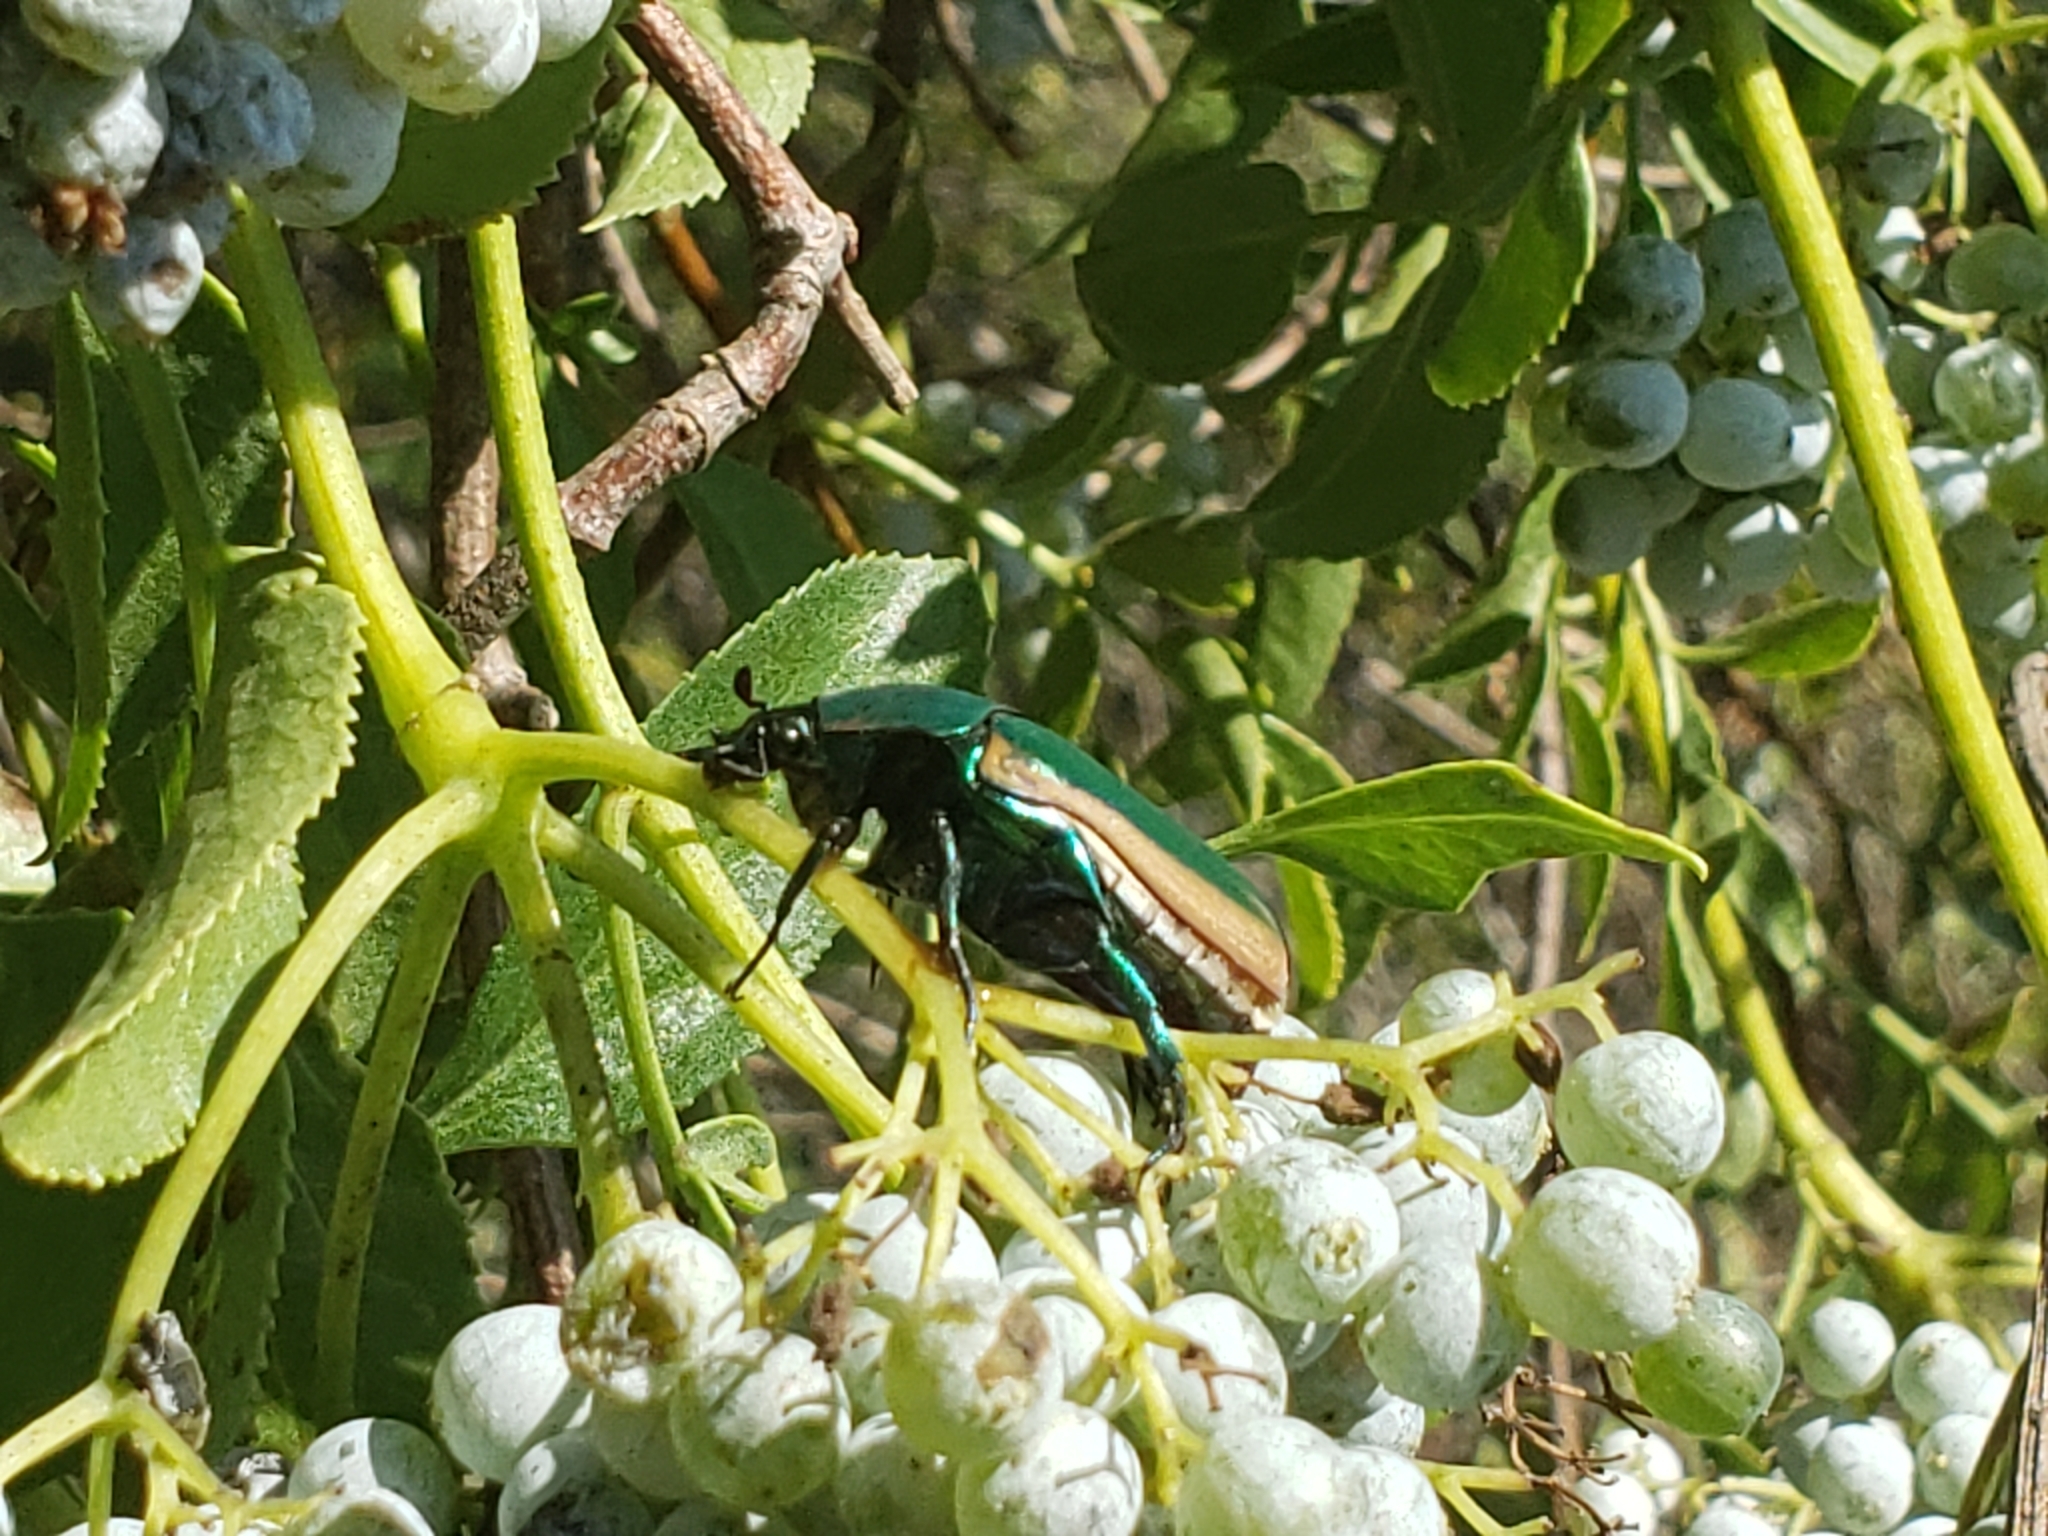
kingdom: Animalia
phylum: Arthropoda
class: Insecta
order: Coleoptera
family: Scarabaeidae
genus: Cotinis
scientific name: Cotinis mutabilis
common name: Figeater beetle
